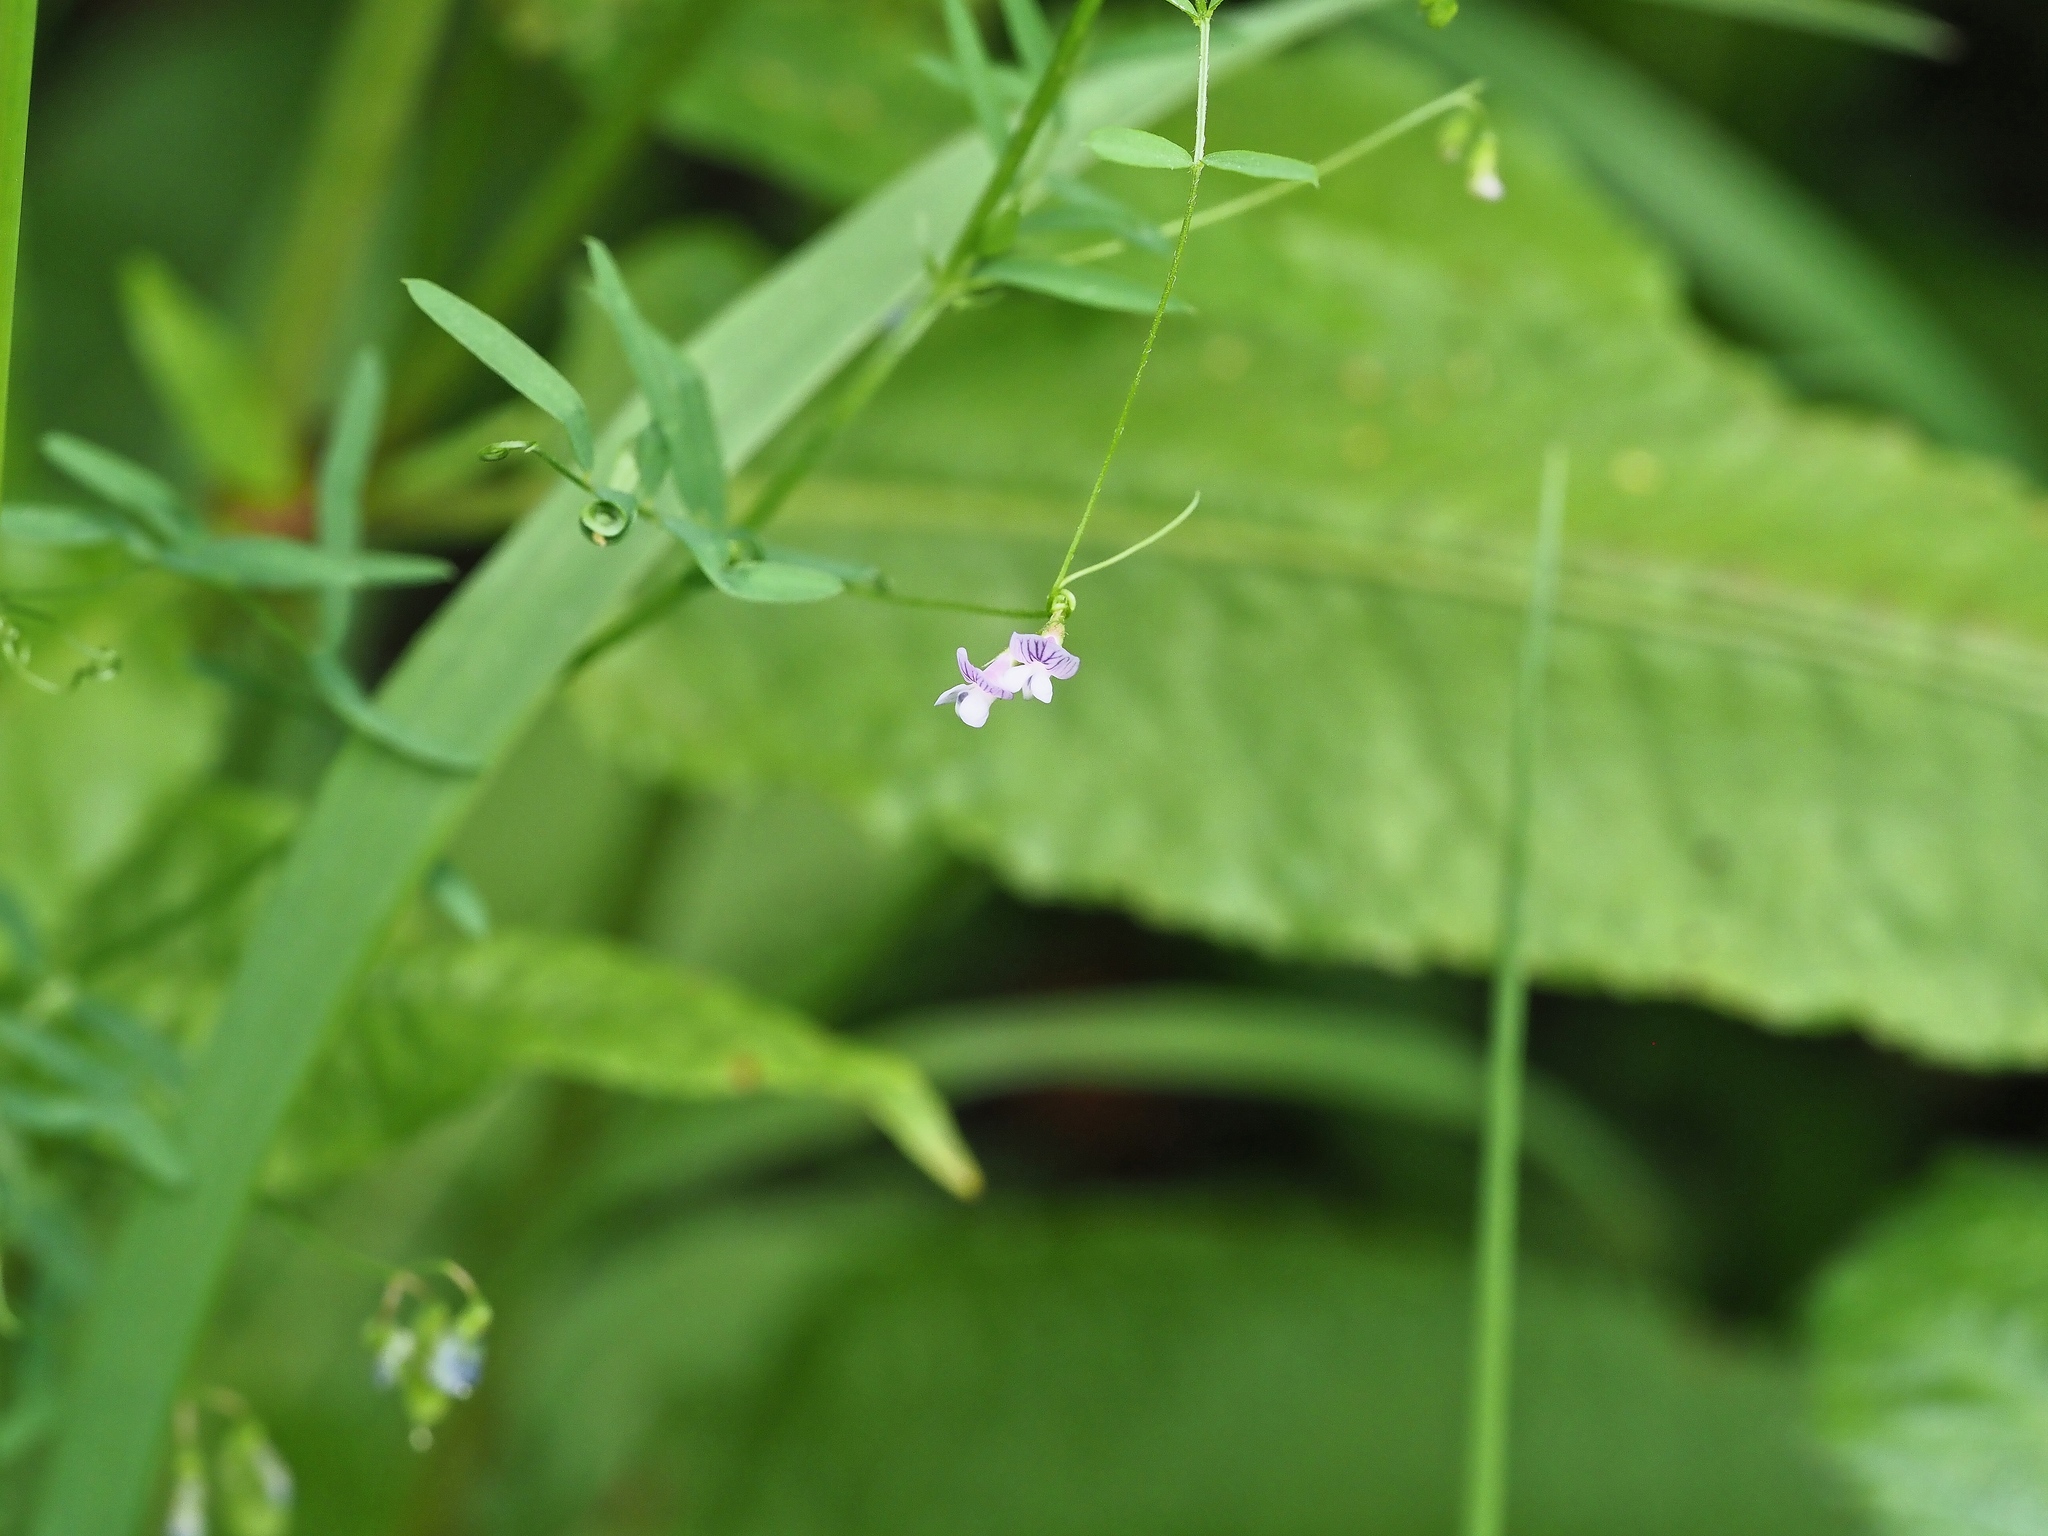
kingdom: Plantae
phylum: Tracheophyta
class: Magnoliopsida
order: Fabales
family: Fabaceae
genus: Vicia
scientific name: Vicia tetrasperma
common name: Smooth tare
